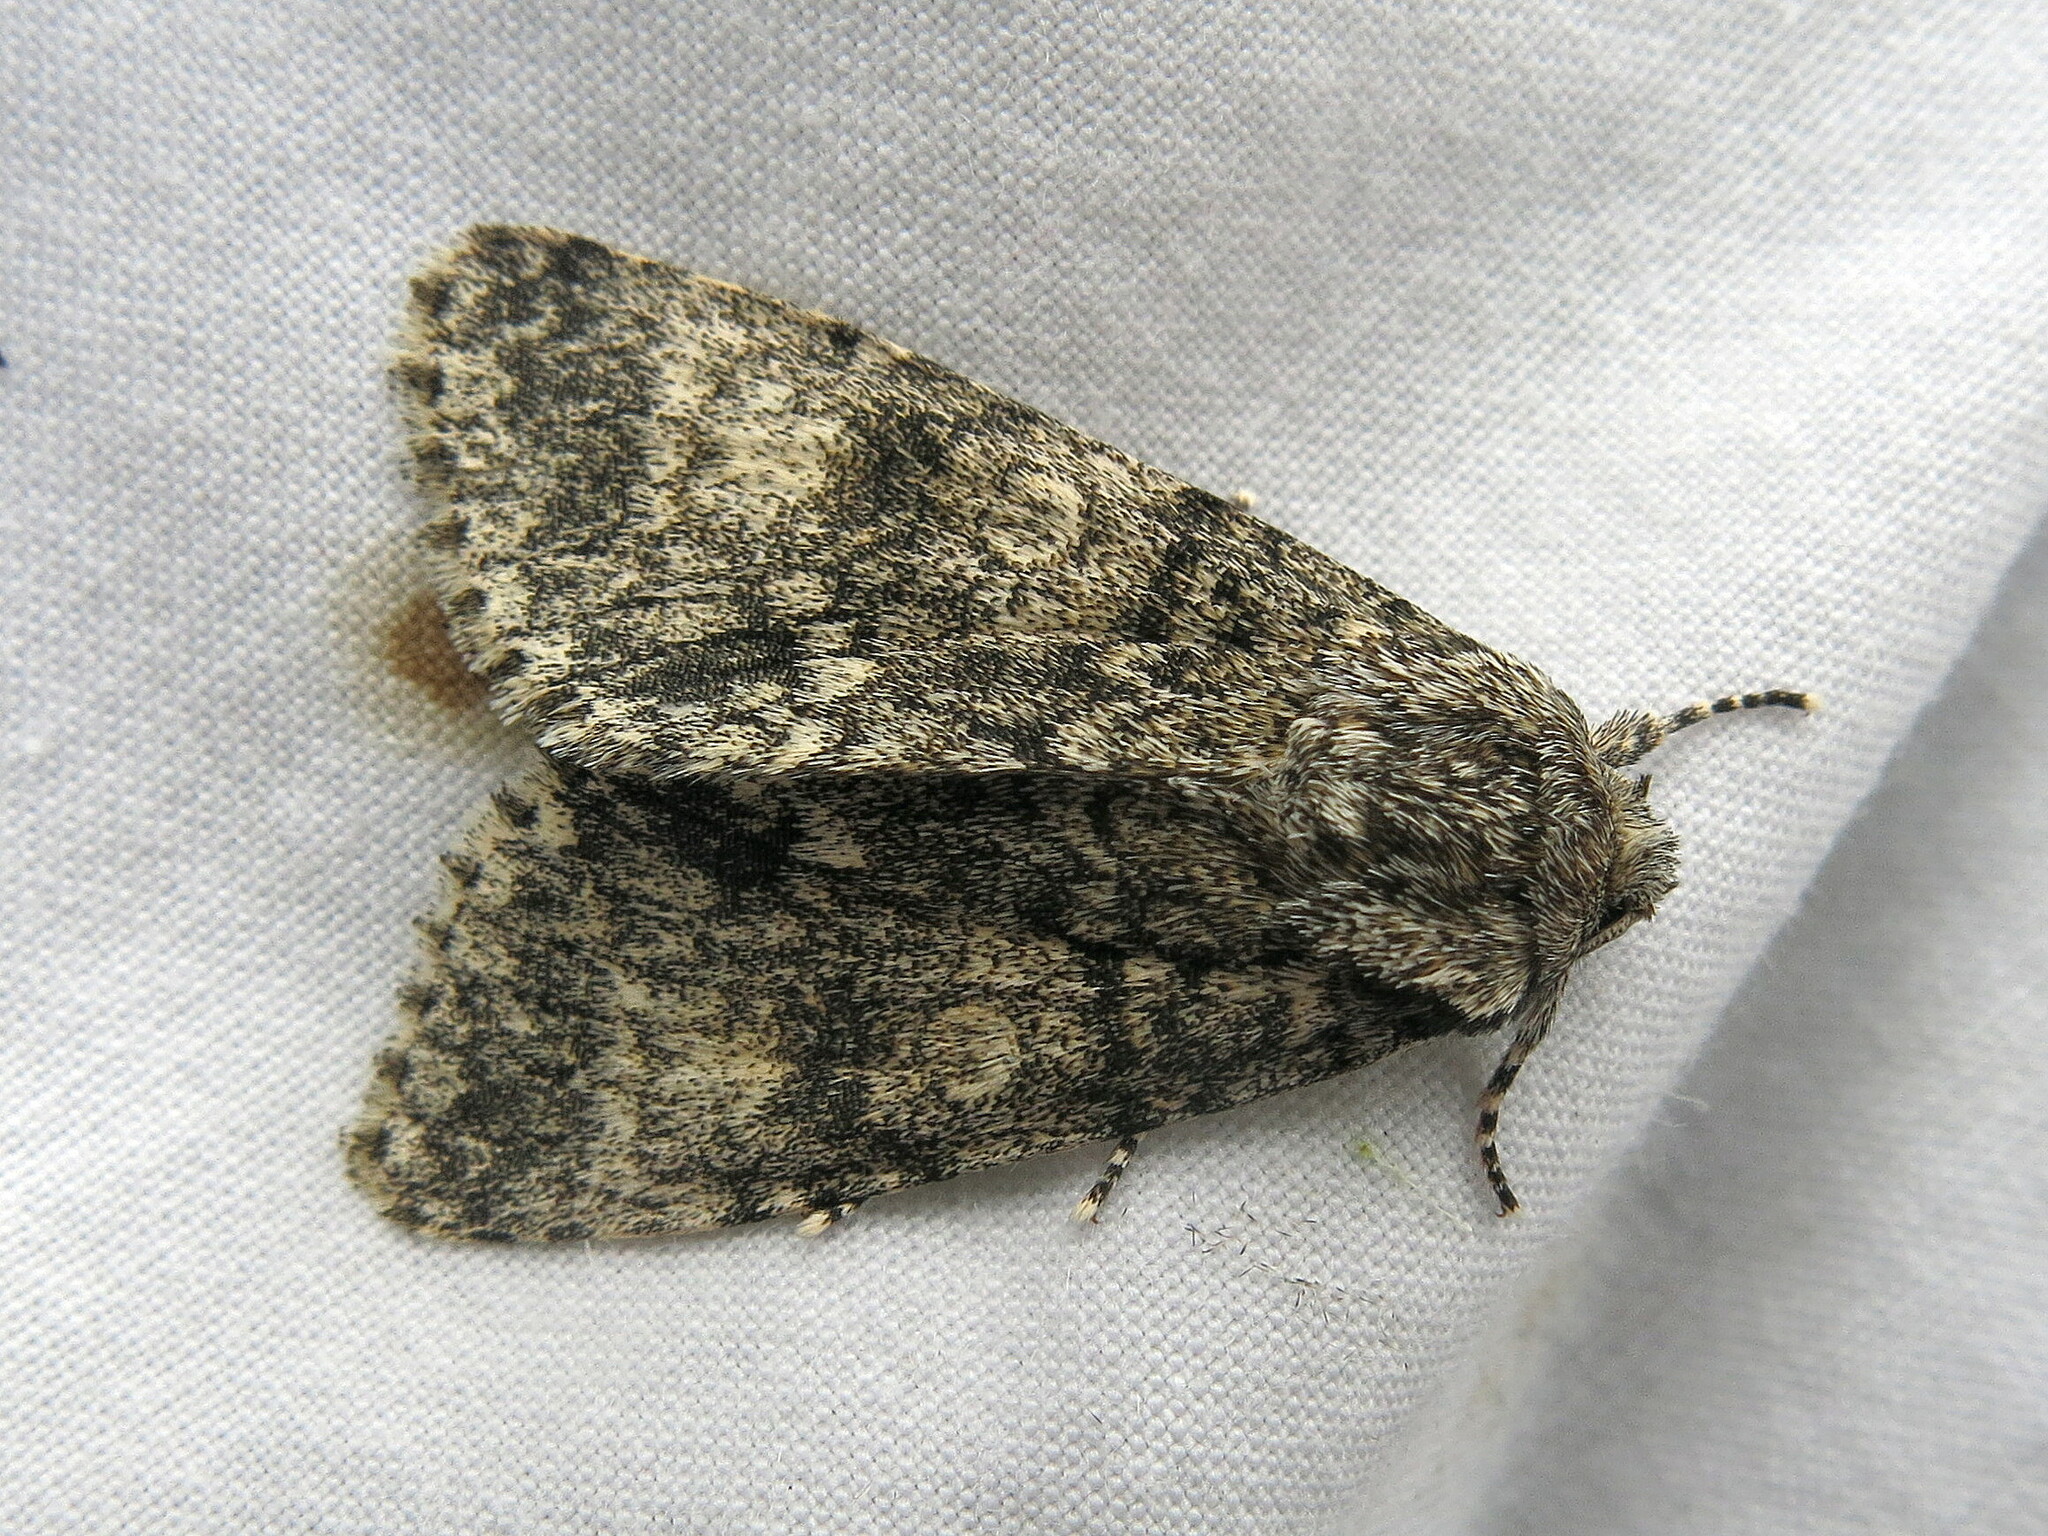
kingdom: Animalia
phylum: Arthropoda
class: Insecta
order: Lepidoptera
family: Noctuidae
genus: Acronicta
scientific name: Acronicta megacephala
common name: Poplar grey
